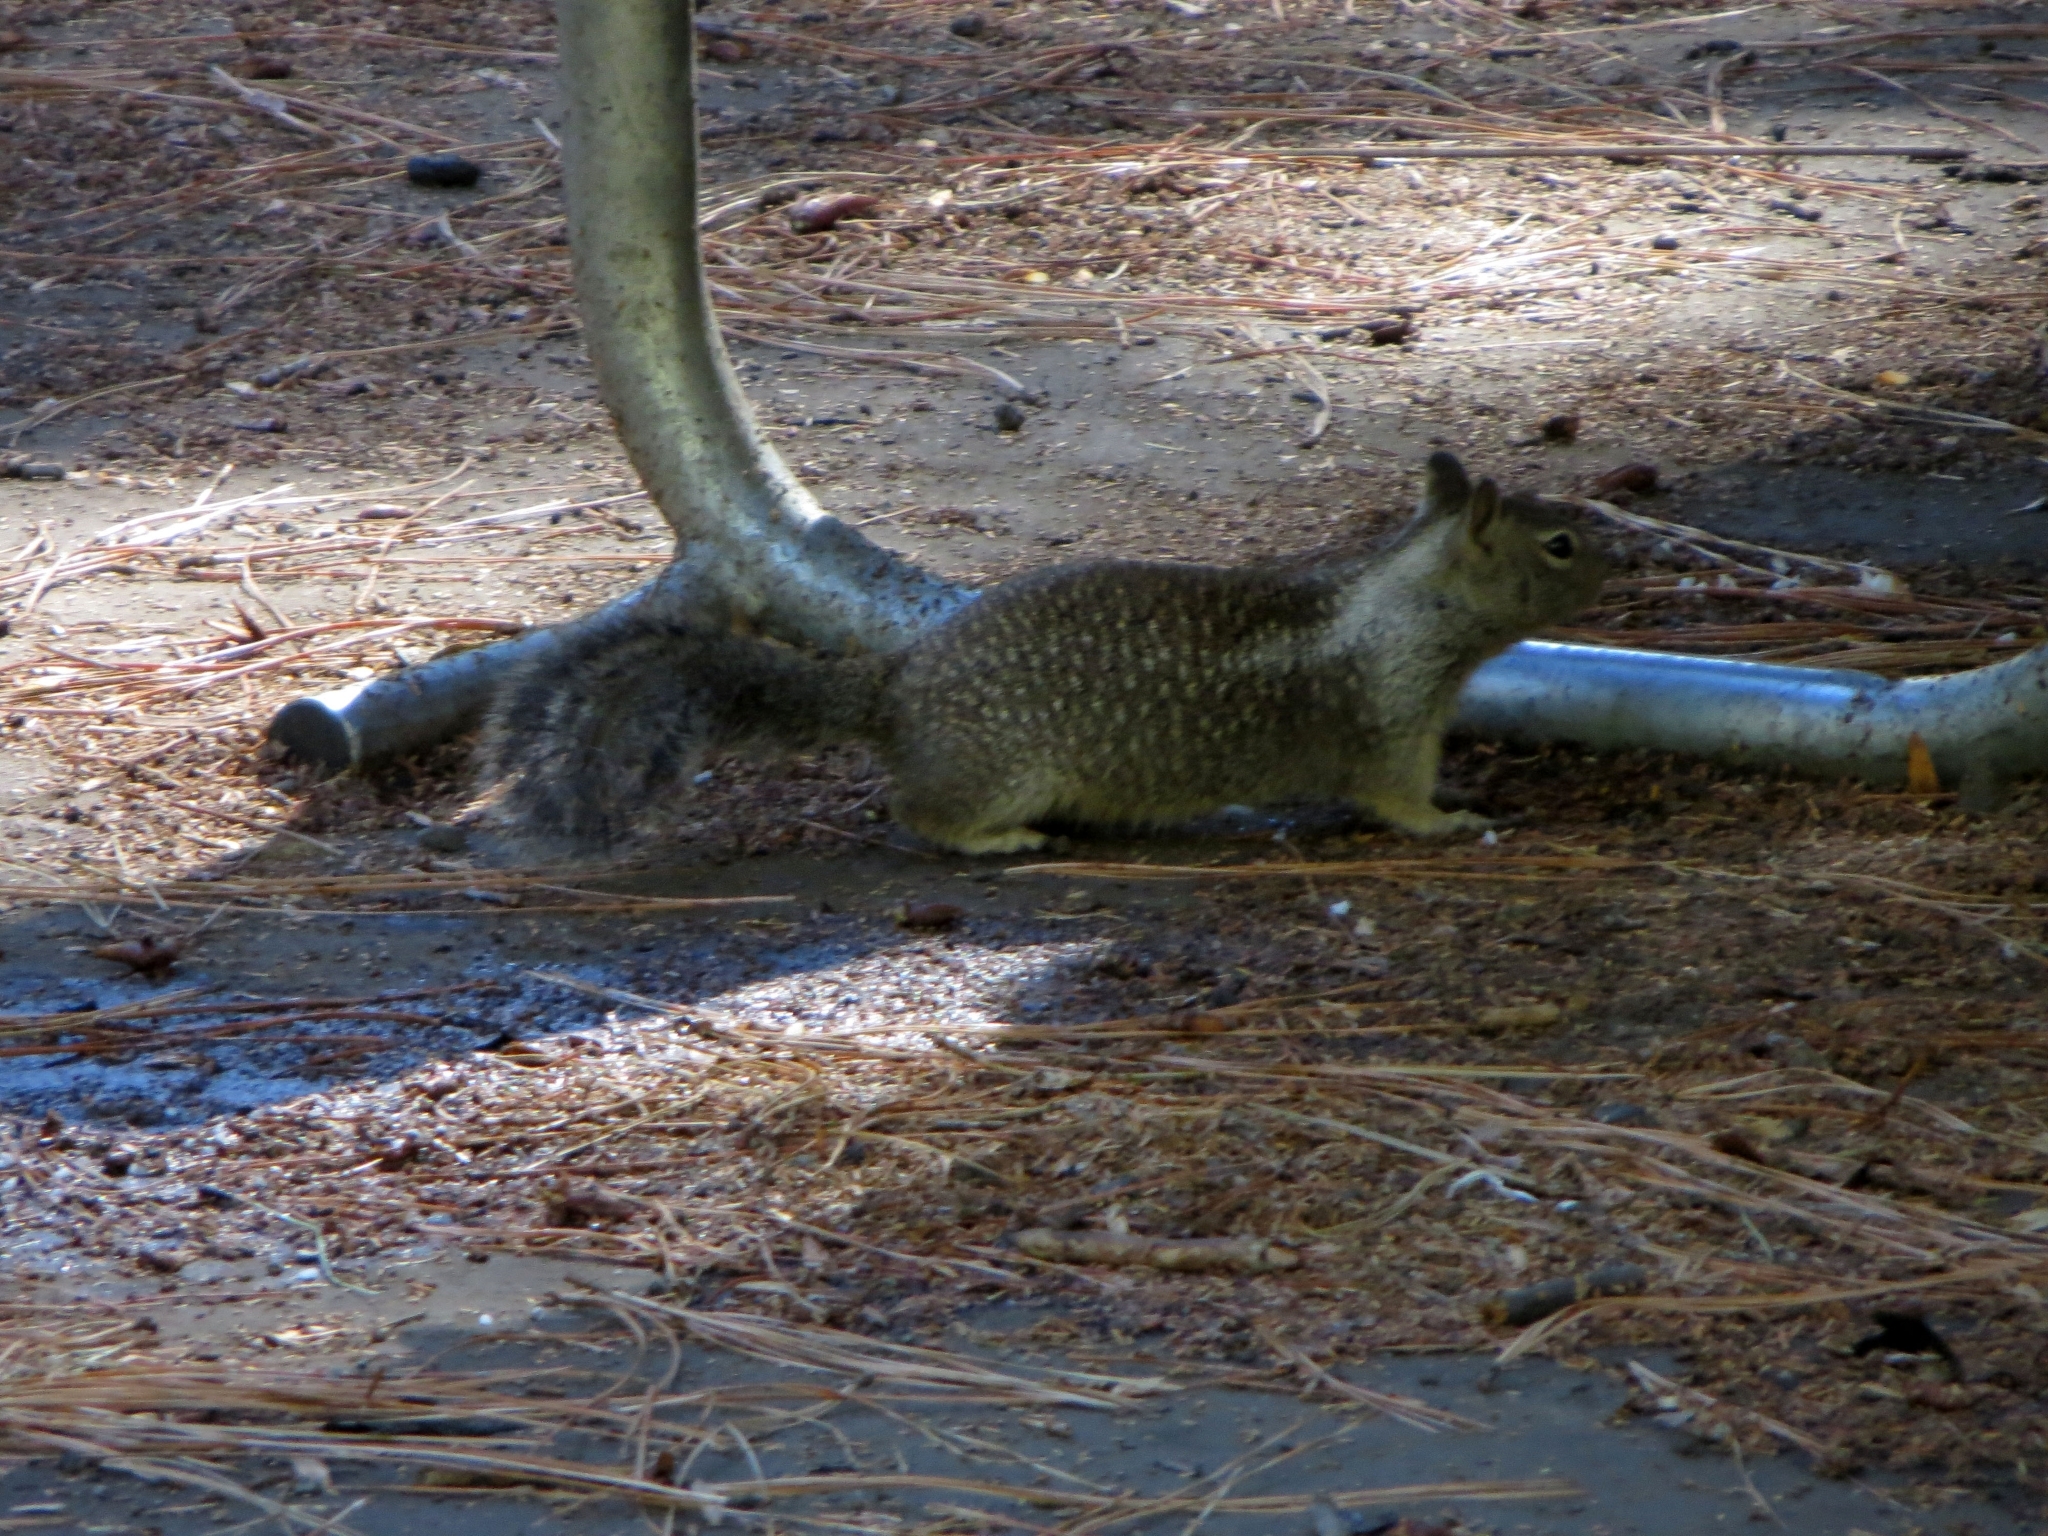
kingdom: Animalia
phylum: Chordata
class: Mammalia
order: Rodentia
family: Sciuridae
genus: Otospermophilus
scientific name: Otospermophilus beecheyi
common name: California ground squirrel
